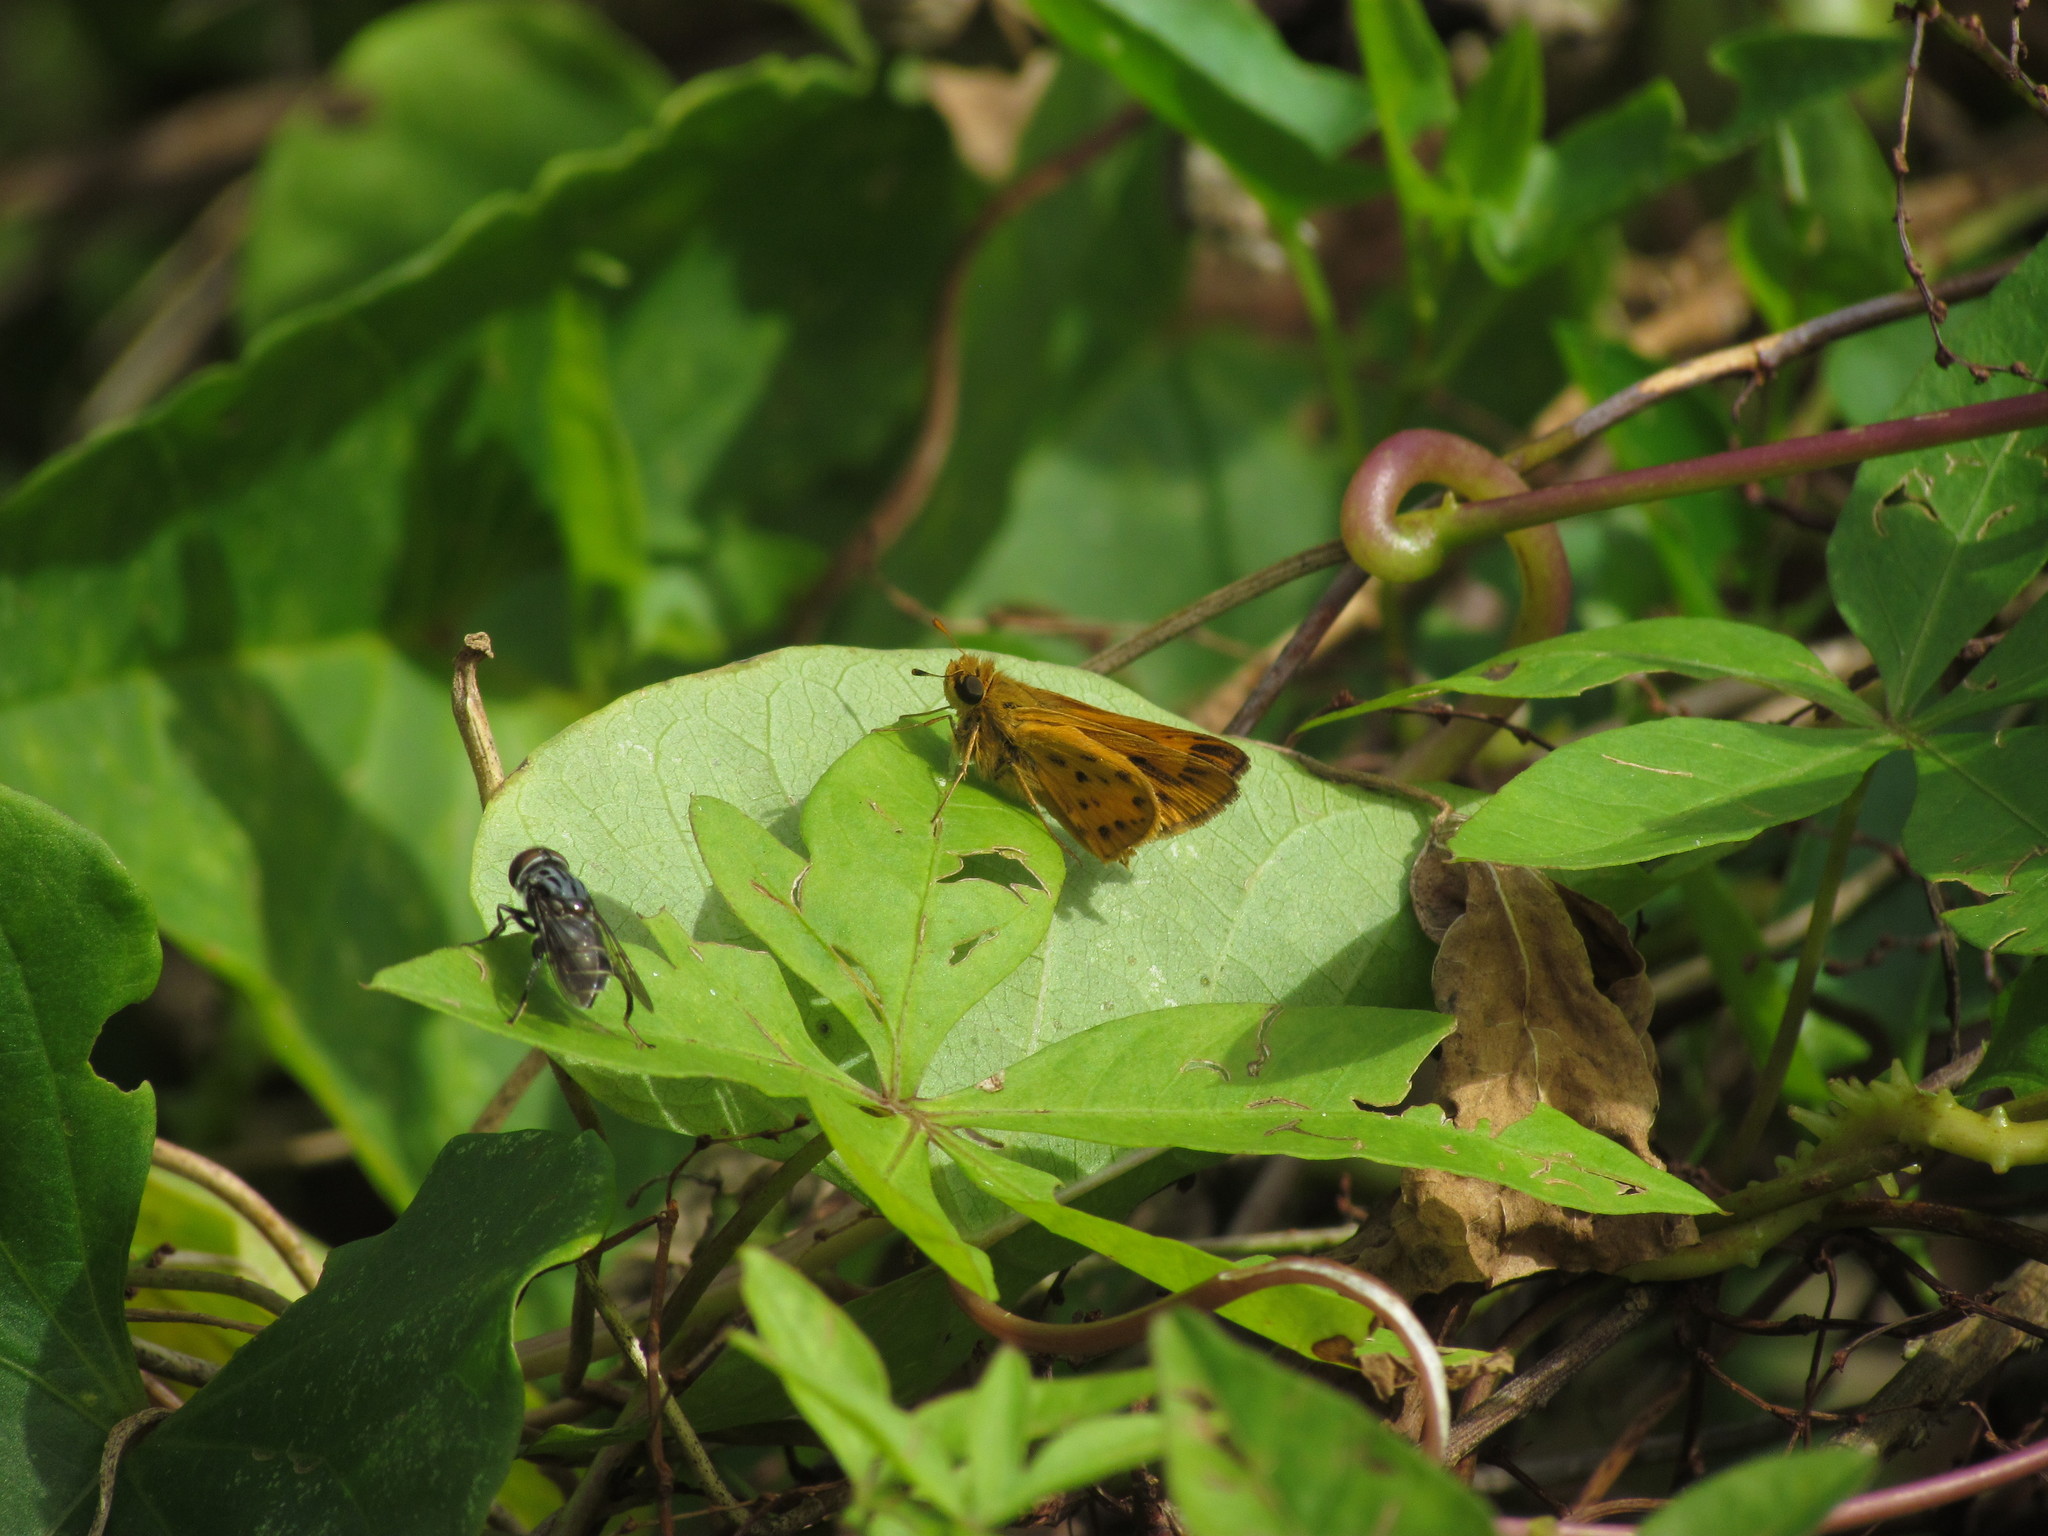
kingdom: Animalia
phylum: Arthropoda
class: Insecta
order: Lepidoptera
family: Hesperiidae
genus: Hylephila
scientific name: Hylephila phyleus
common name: Fiery skipper
